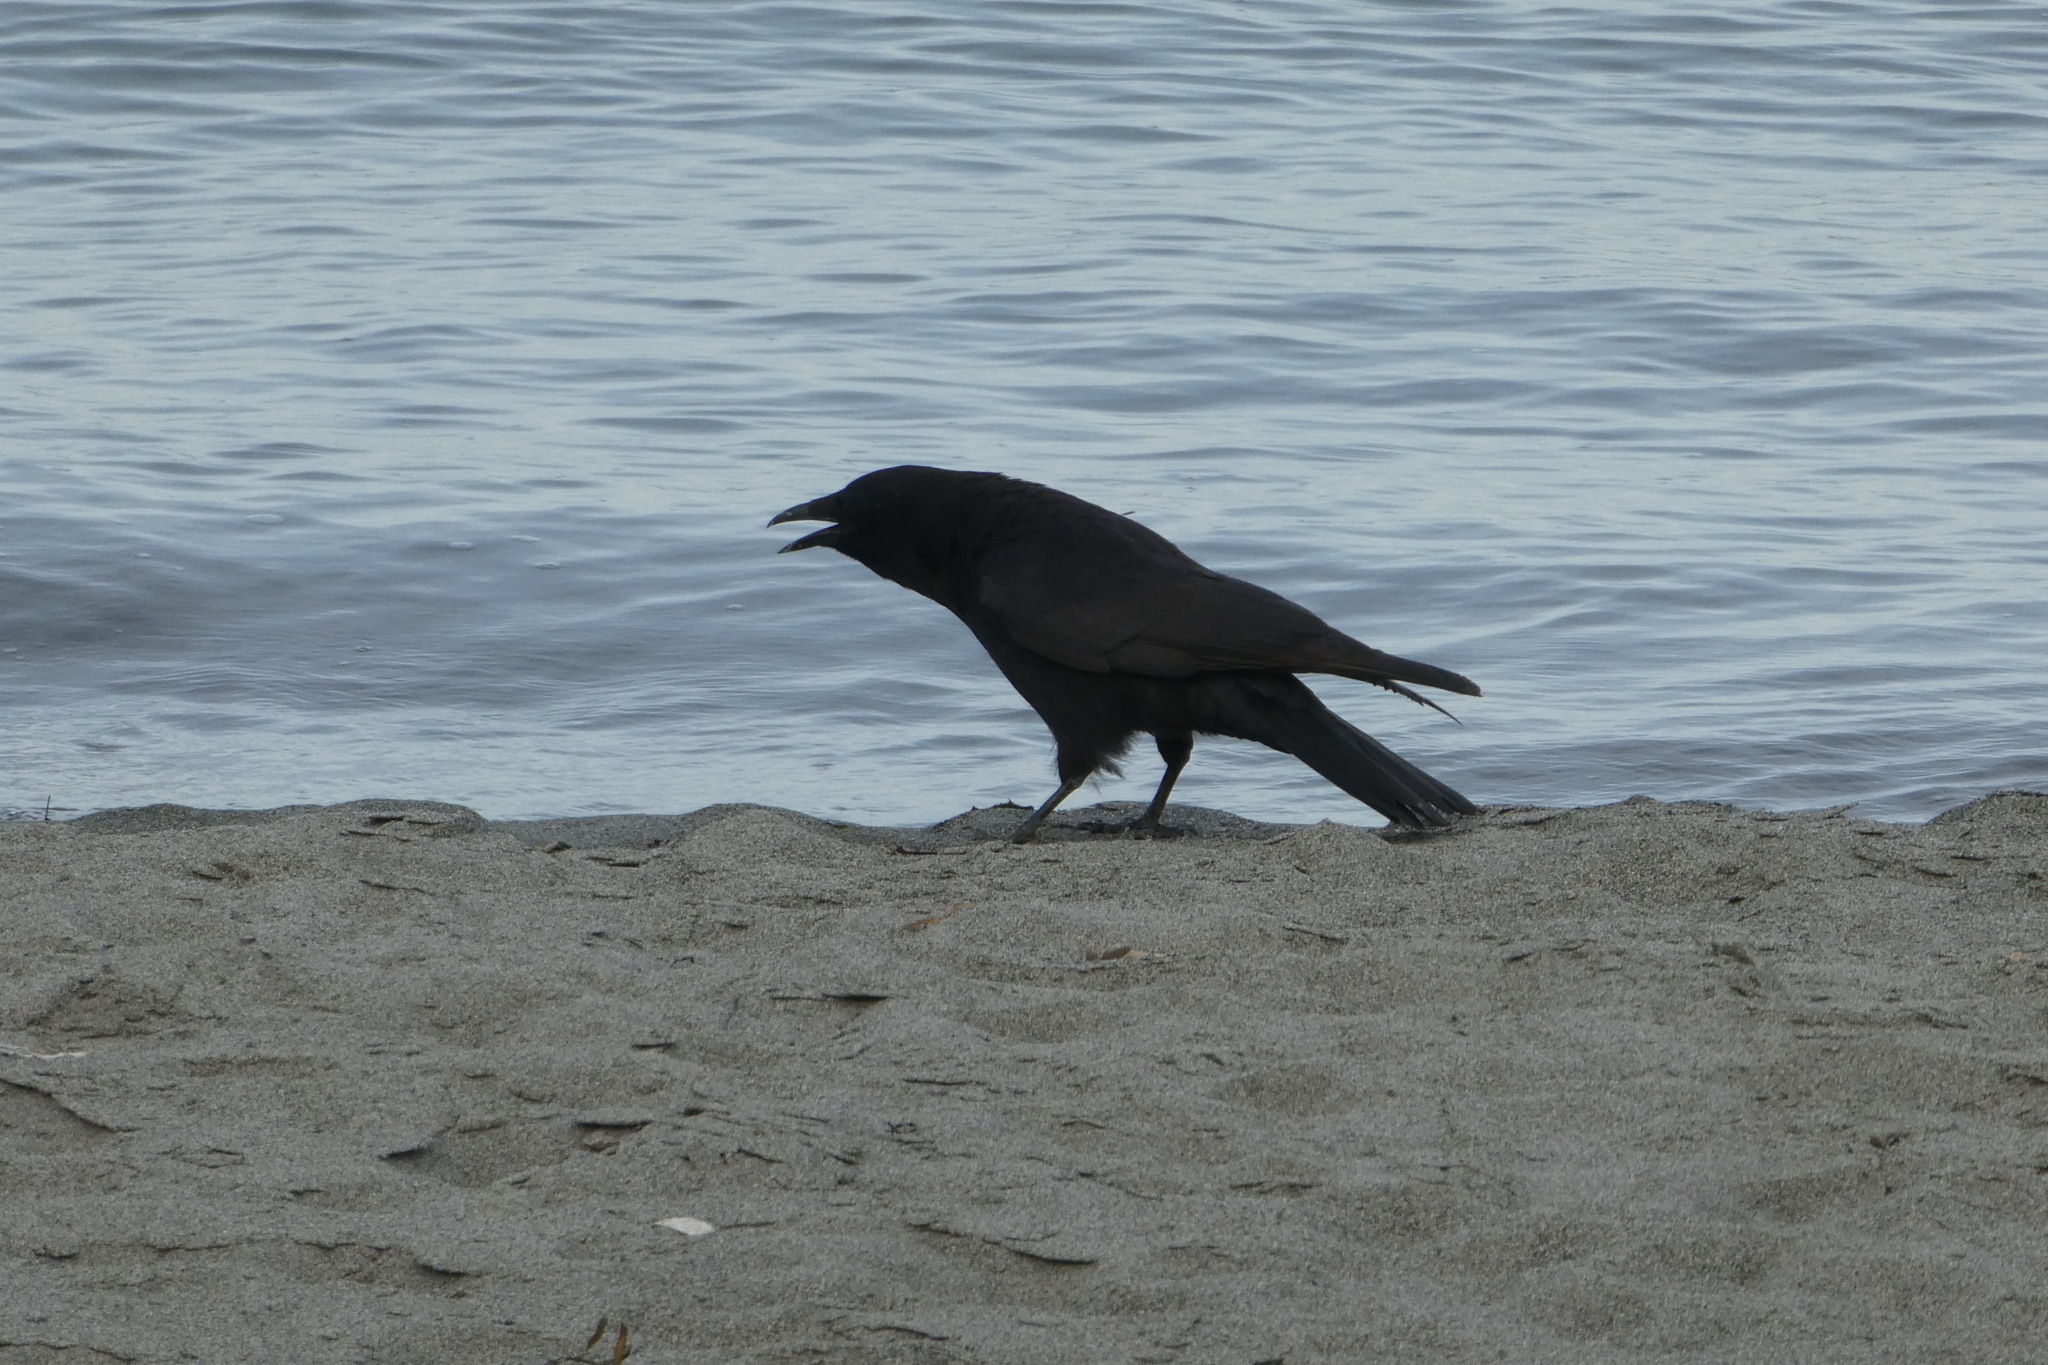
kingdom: Animalia
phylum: Chordata
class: Aves
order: Passeriformes
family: Corvidae
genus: Corvus
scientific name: Corvus brachyrhynchos
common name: American crow
